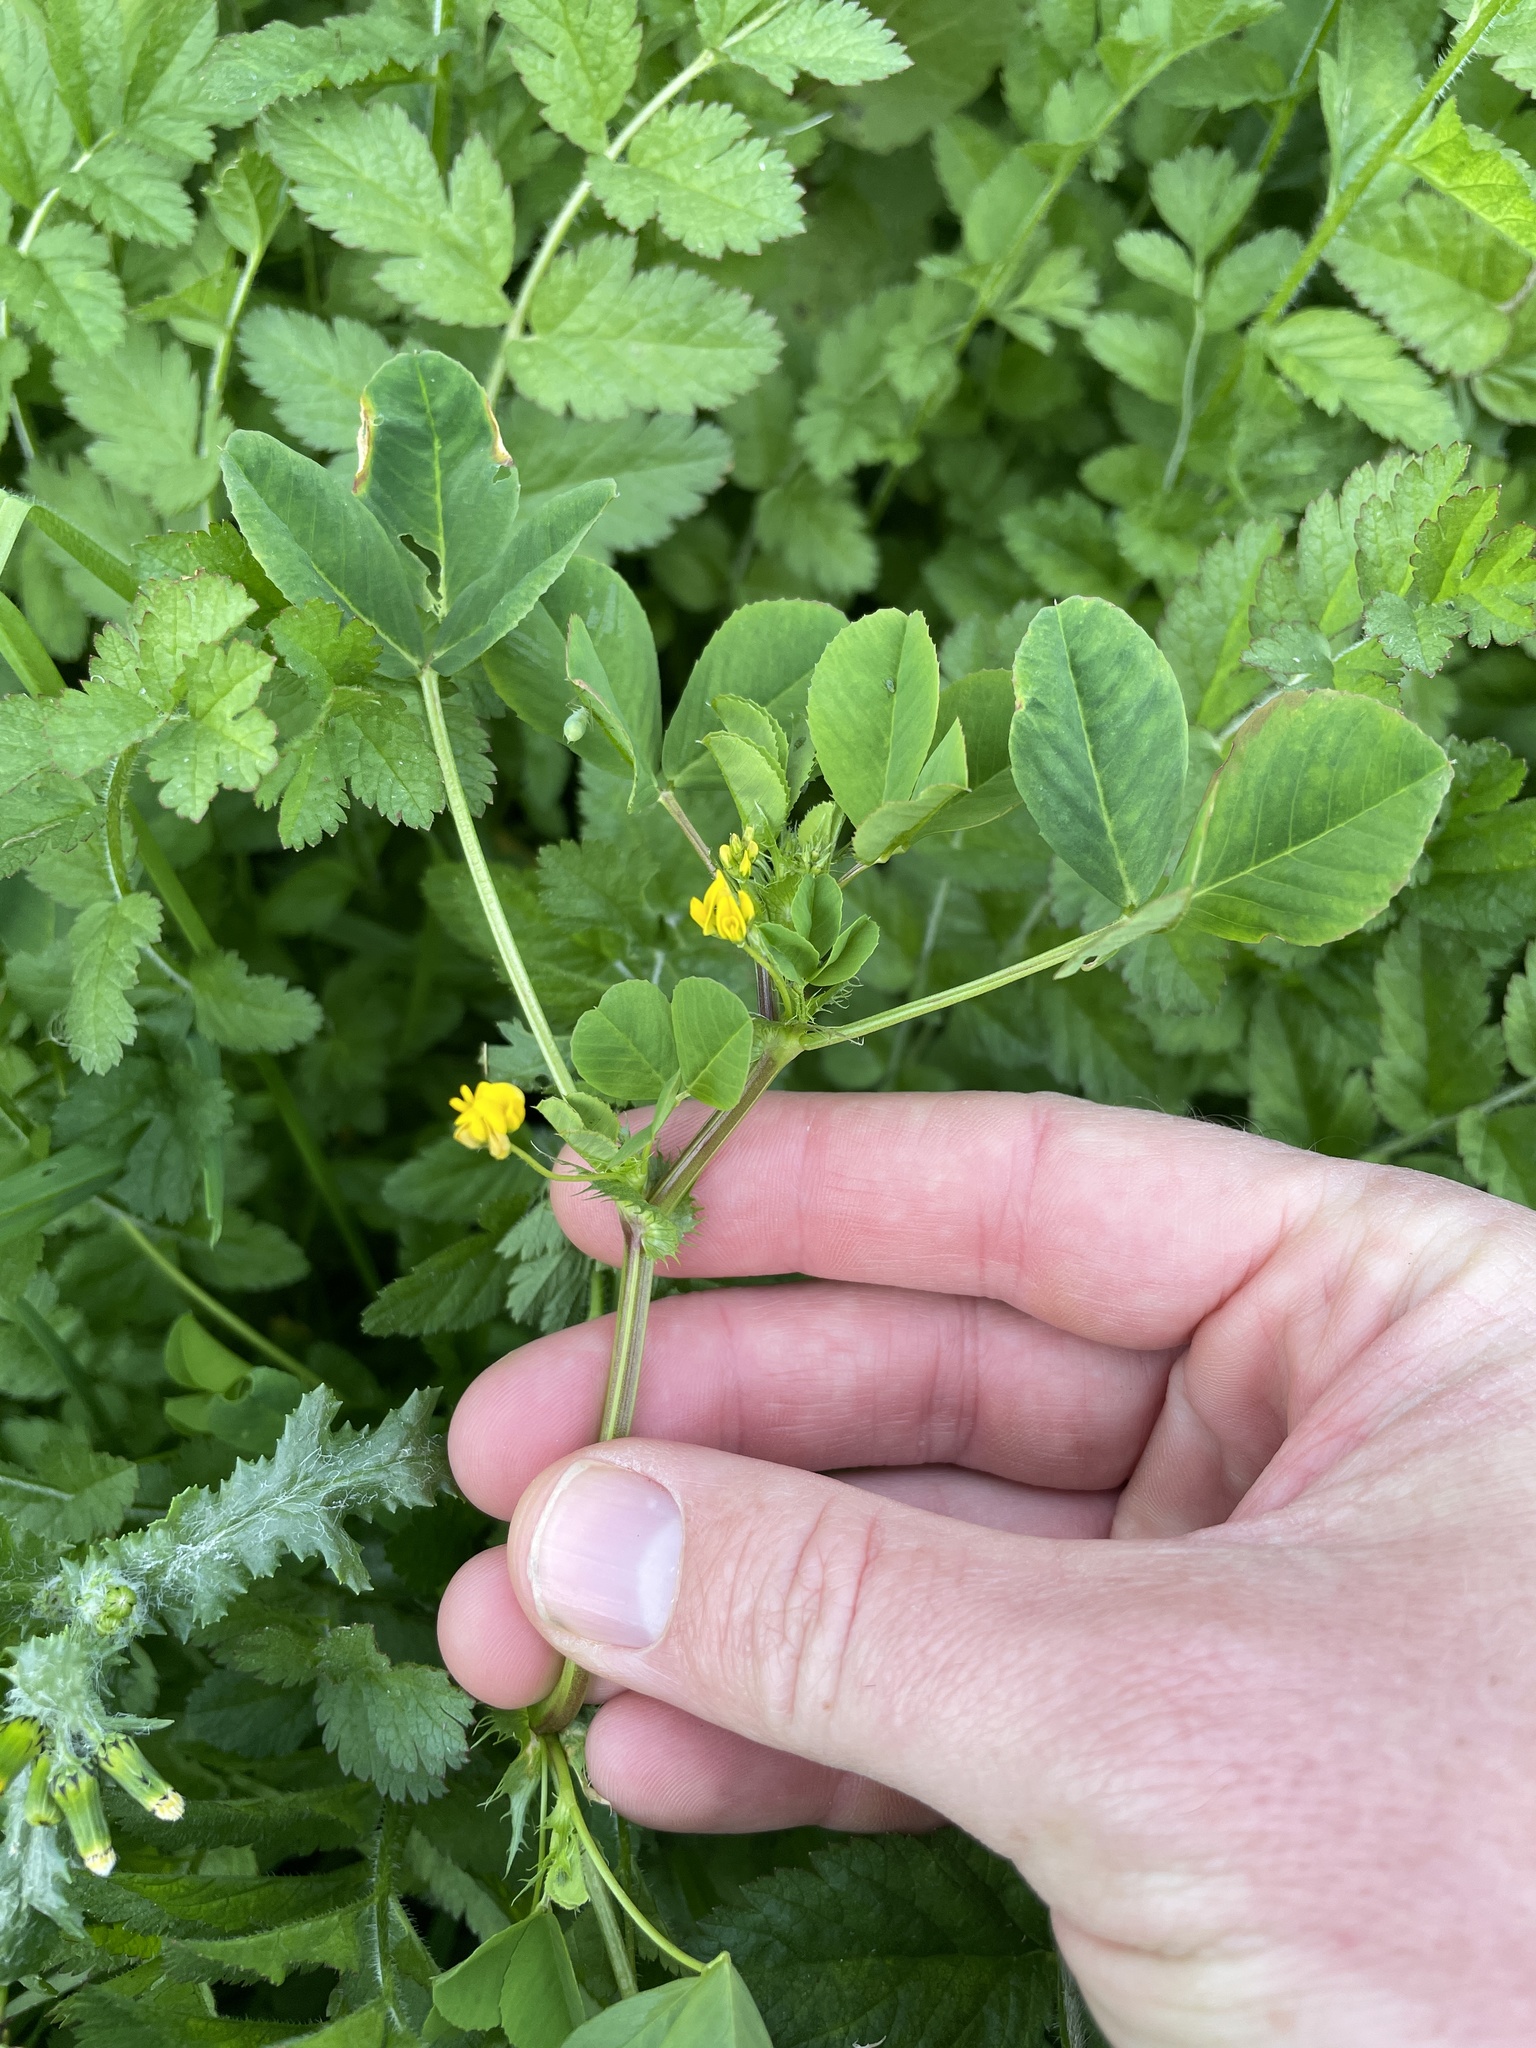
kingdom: Plantae
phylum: Tracheophyta
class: Magnoliopsida
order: Fabales
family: Fabaceae
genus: Medicago
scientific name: Medicago polymorpha
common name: Burclover
